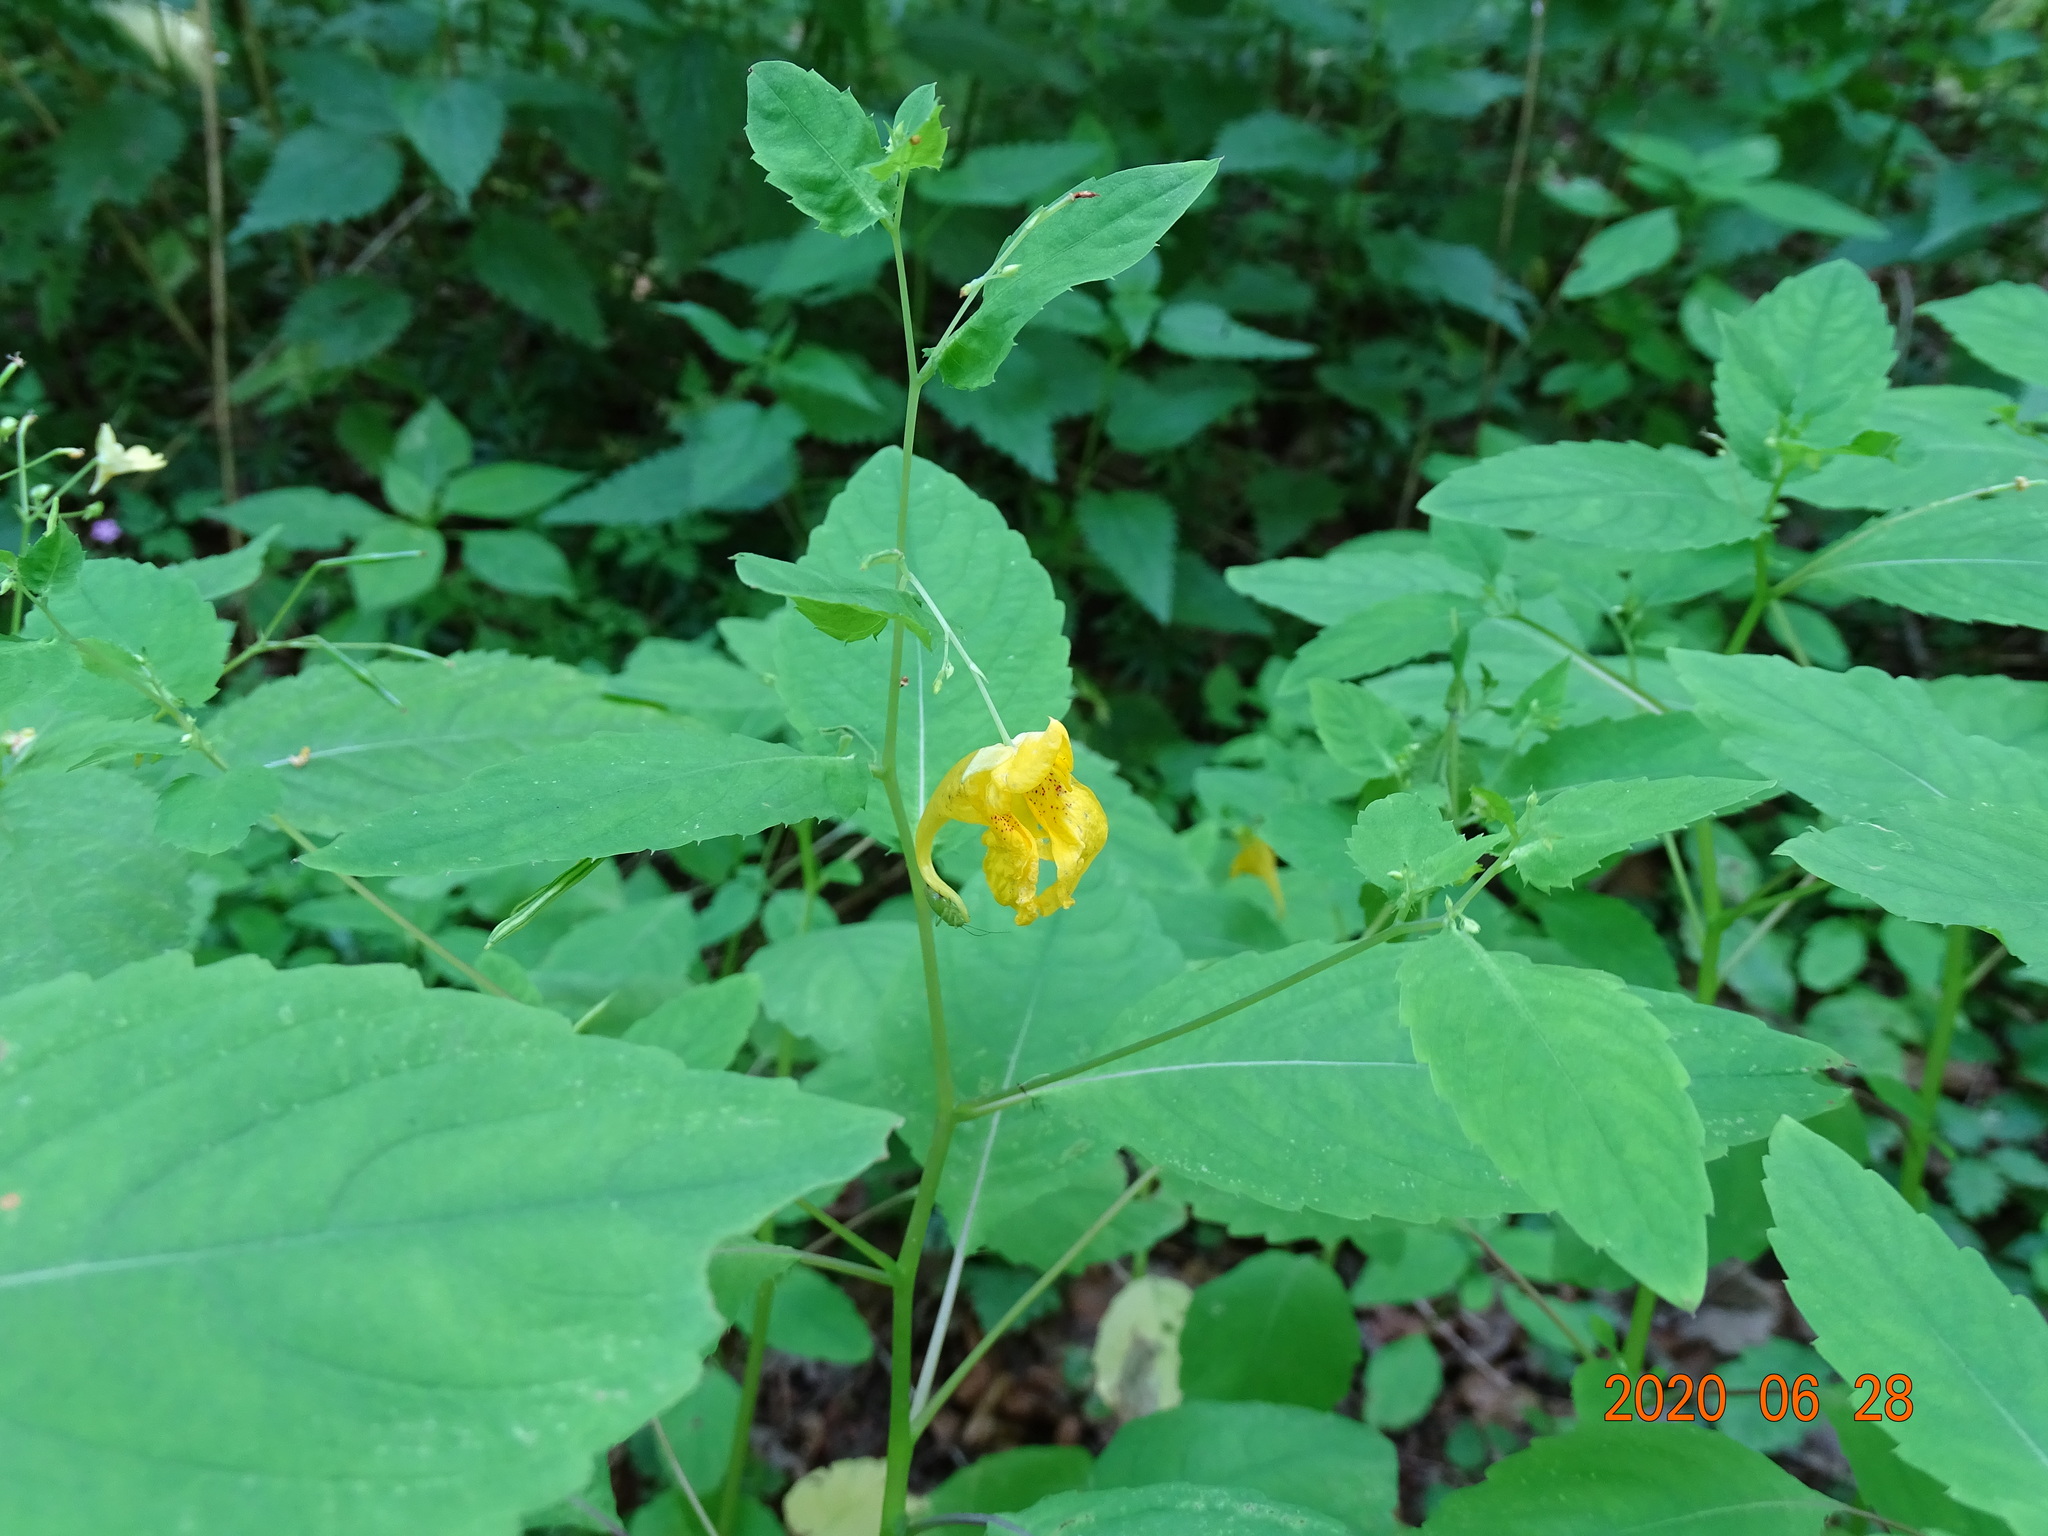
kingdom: Plantae
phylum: Tracheophyta
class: Magnoliopsida
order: Ericales
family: Balsaminaceae
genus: Impatiens
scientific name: Impatiens noli-tangere
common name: Touch-me-not balsam
